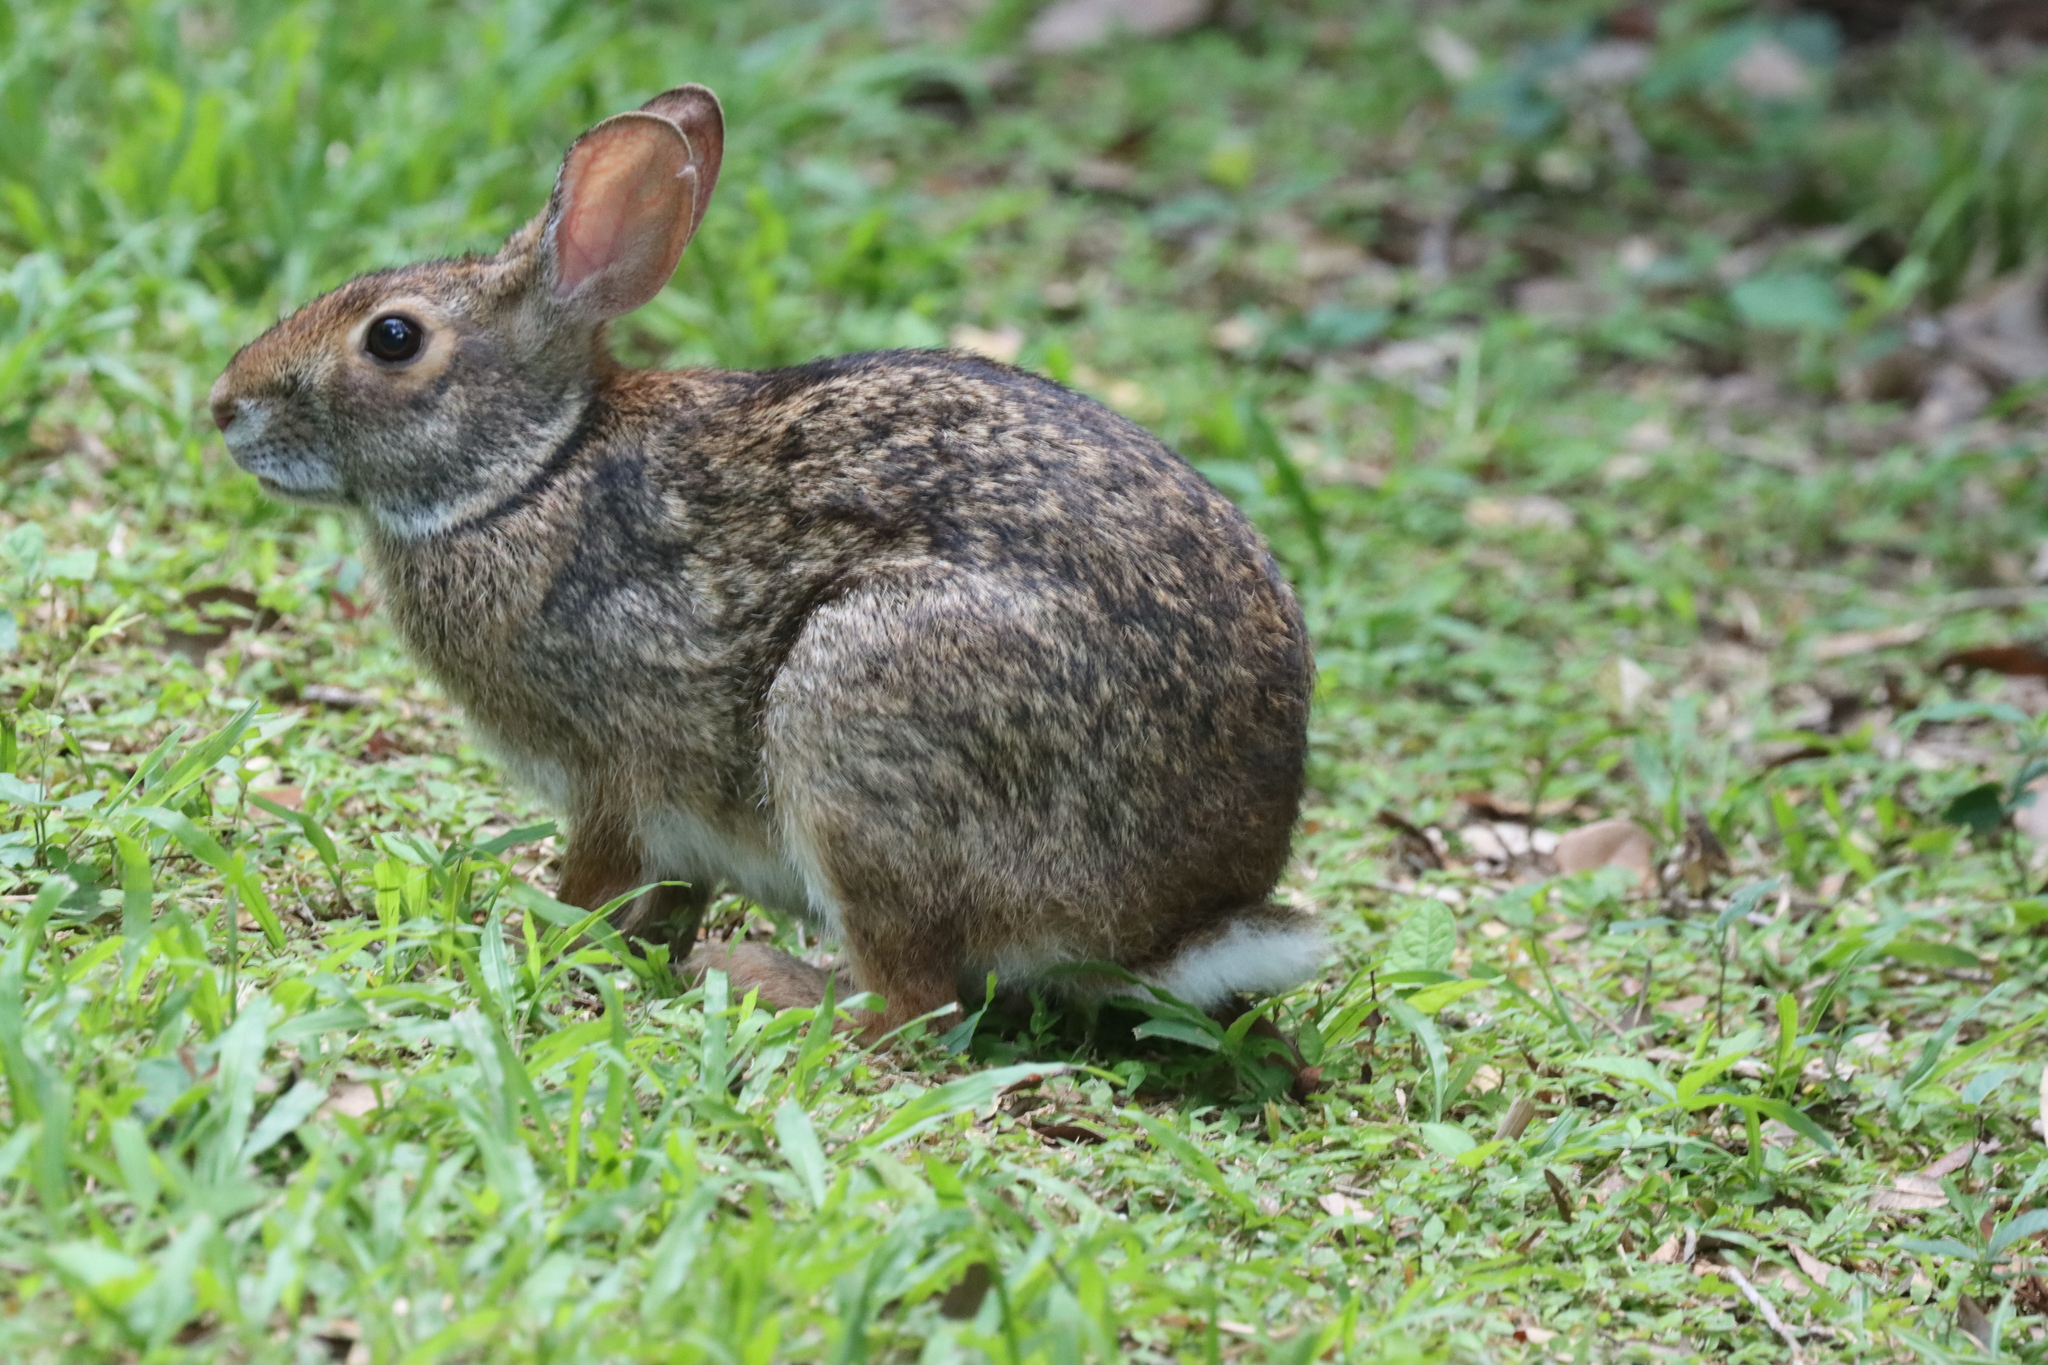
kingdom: Animalia
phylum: Chordata
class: Mammalia
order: Lagomorpha
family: Leporidae
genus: Sylvilagus
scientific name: Sylvilagus aquaticus
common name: Swamp rabbit
